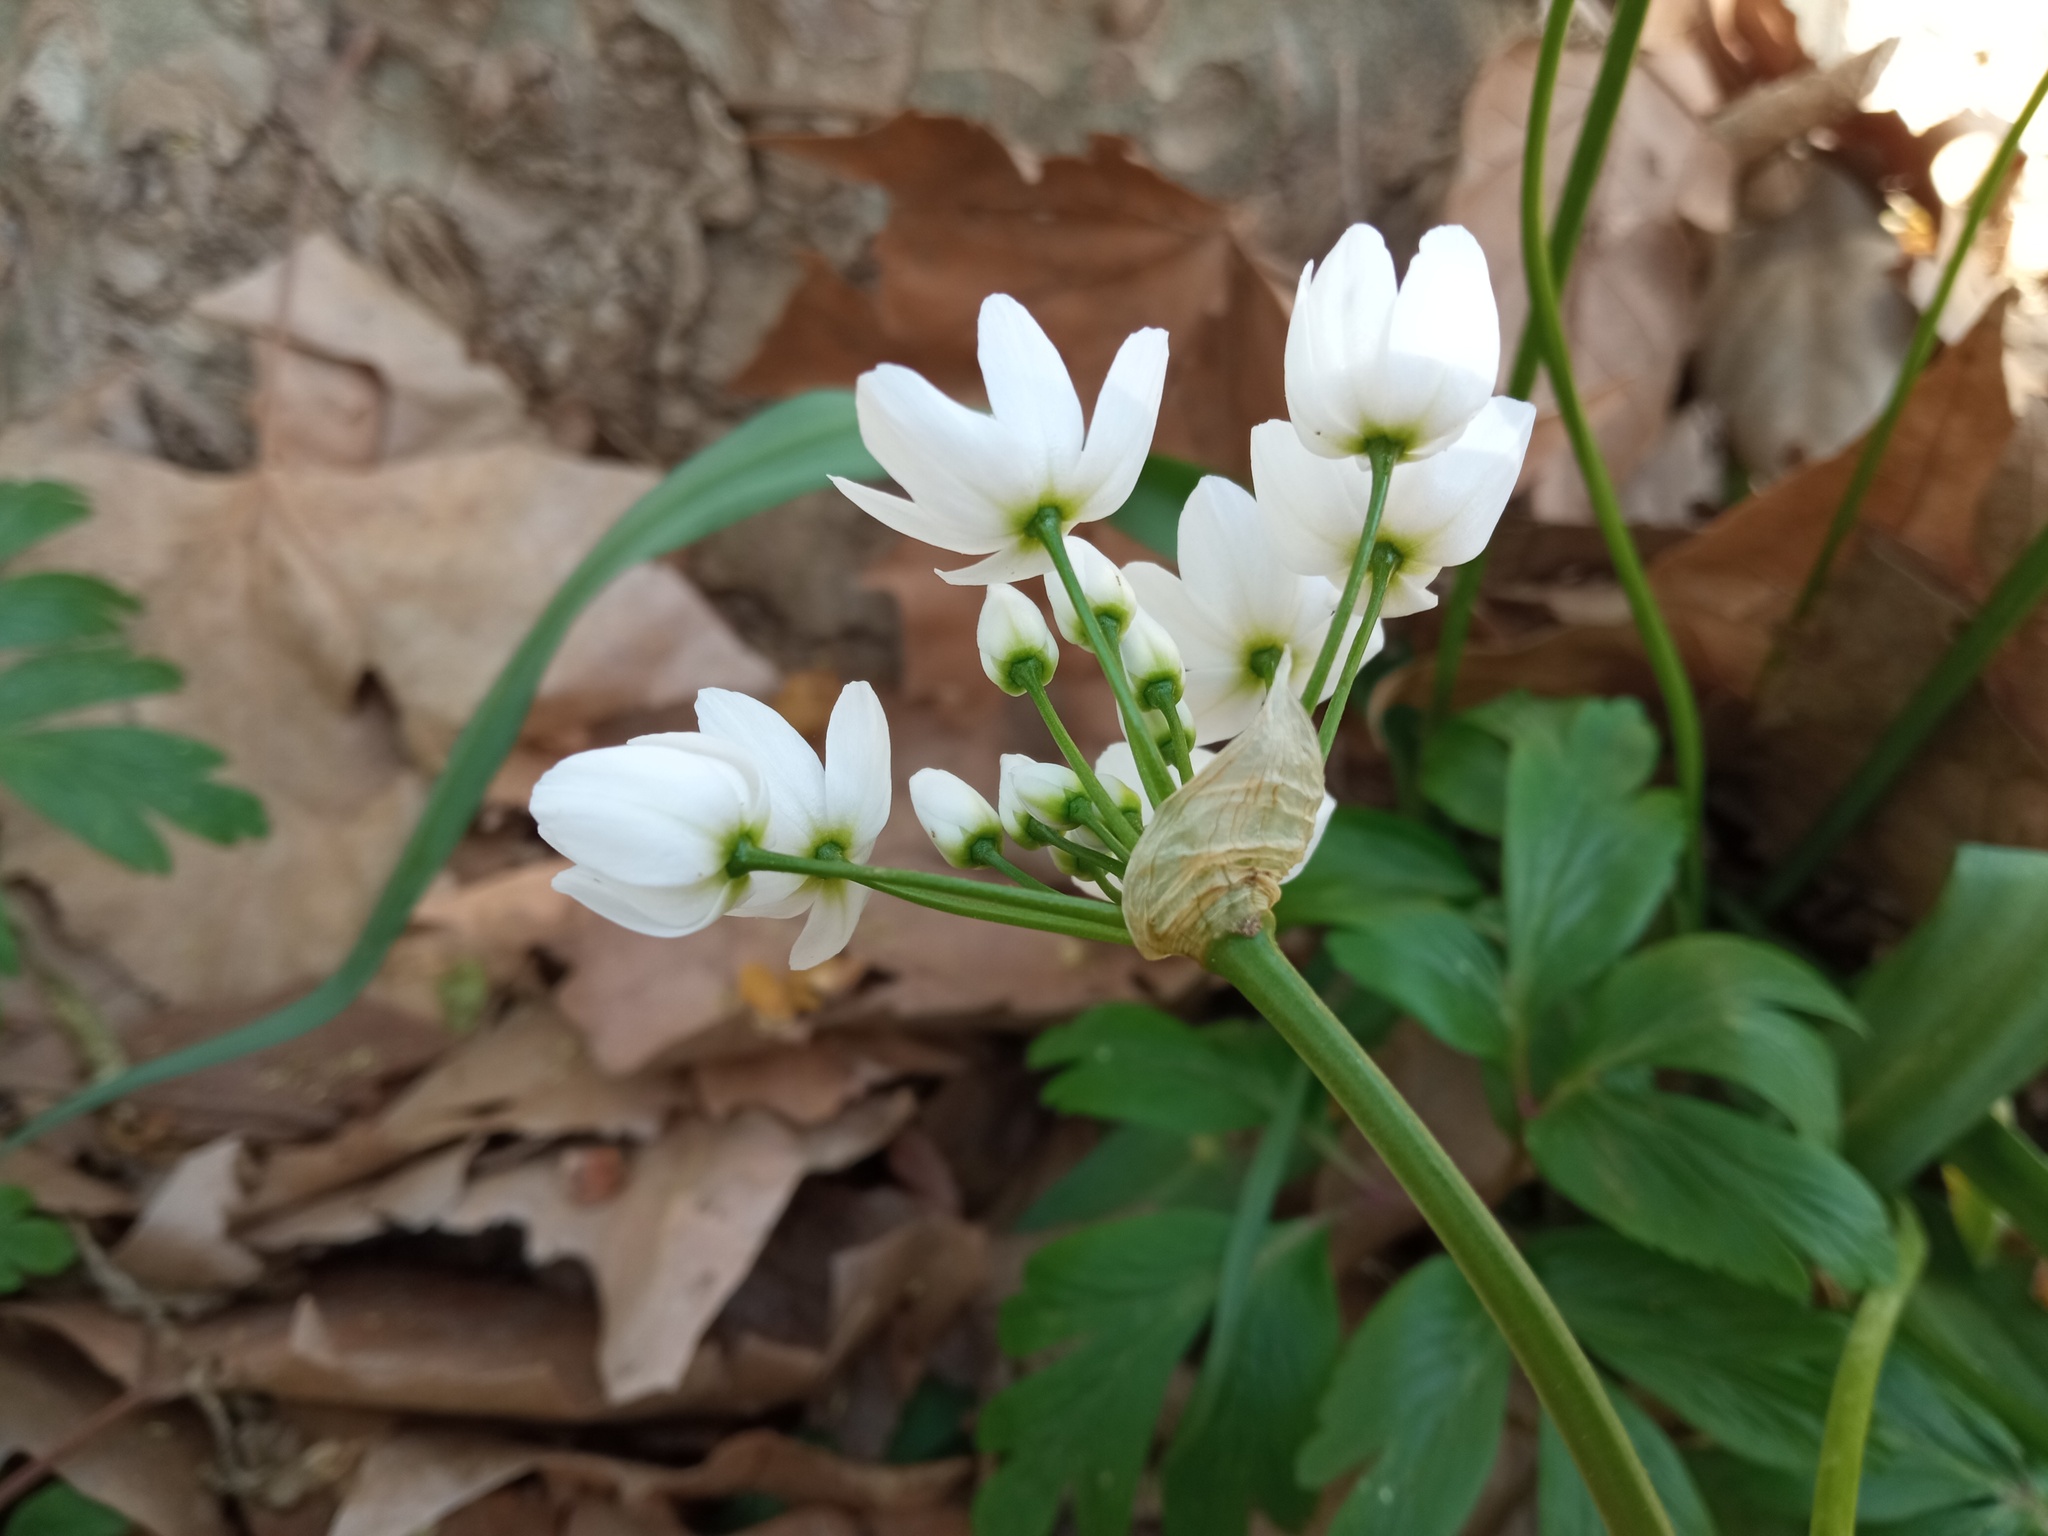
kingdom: Plantae
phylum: Tracheophyta
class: Liliopsida
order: Asparagales
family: Amaryllidaceae
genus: Allium
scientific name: Allium neapolitanum
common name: Neapolitan garlic
